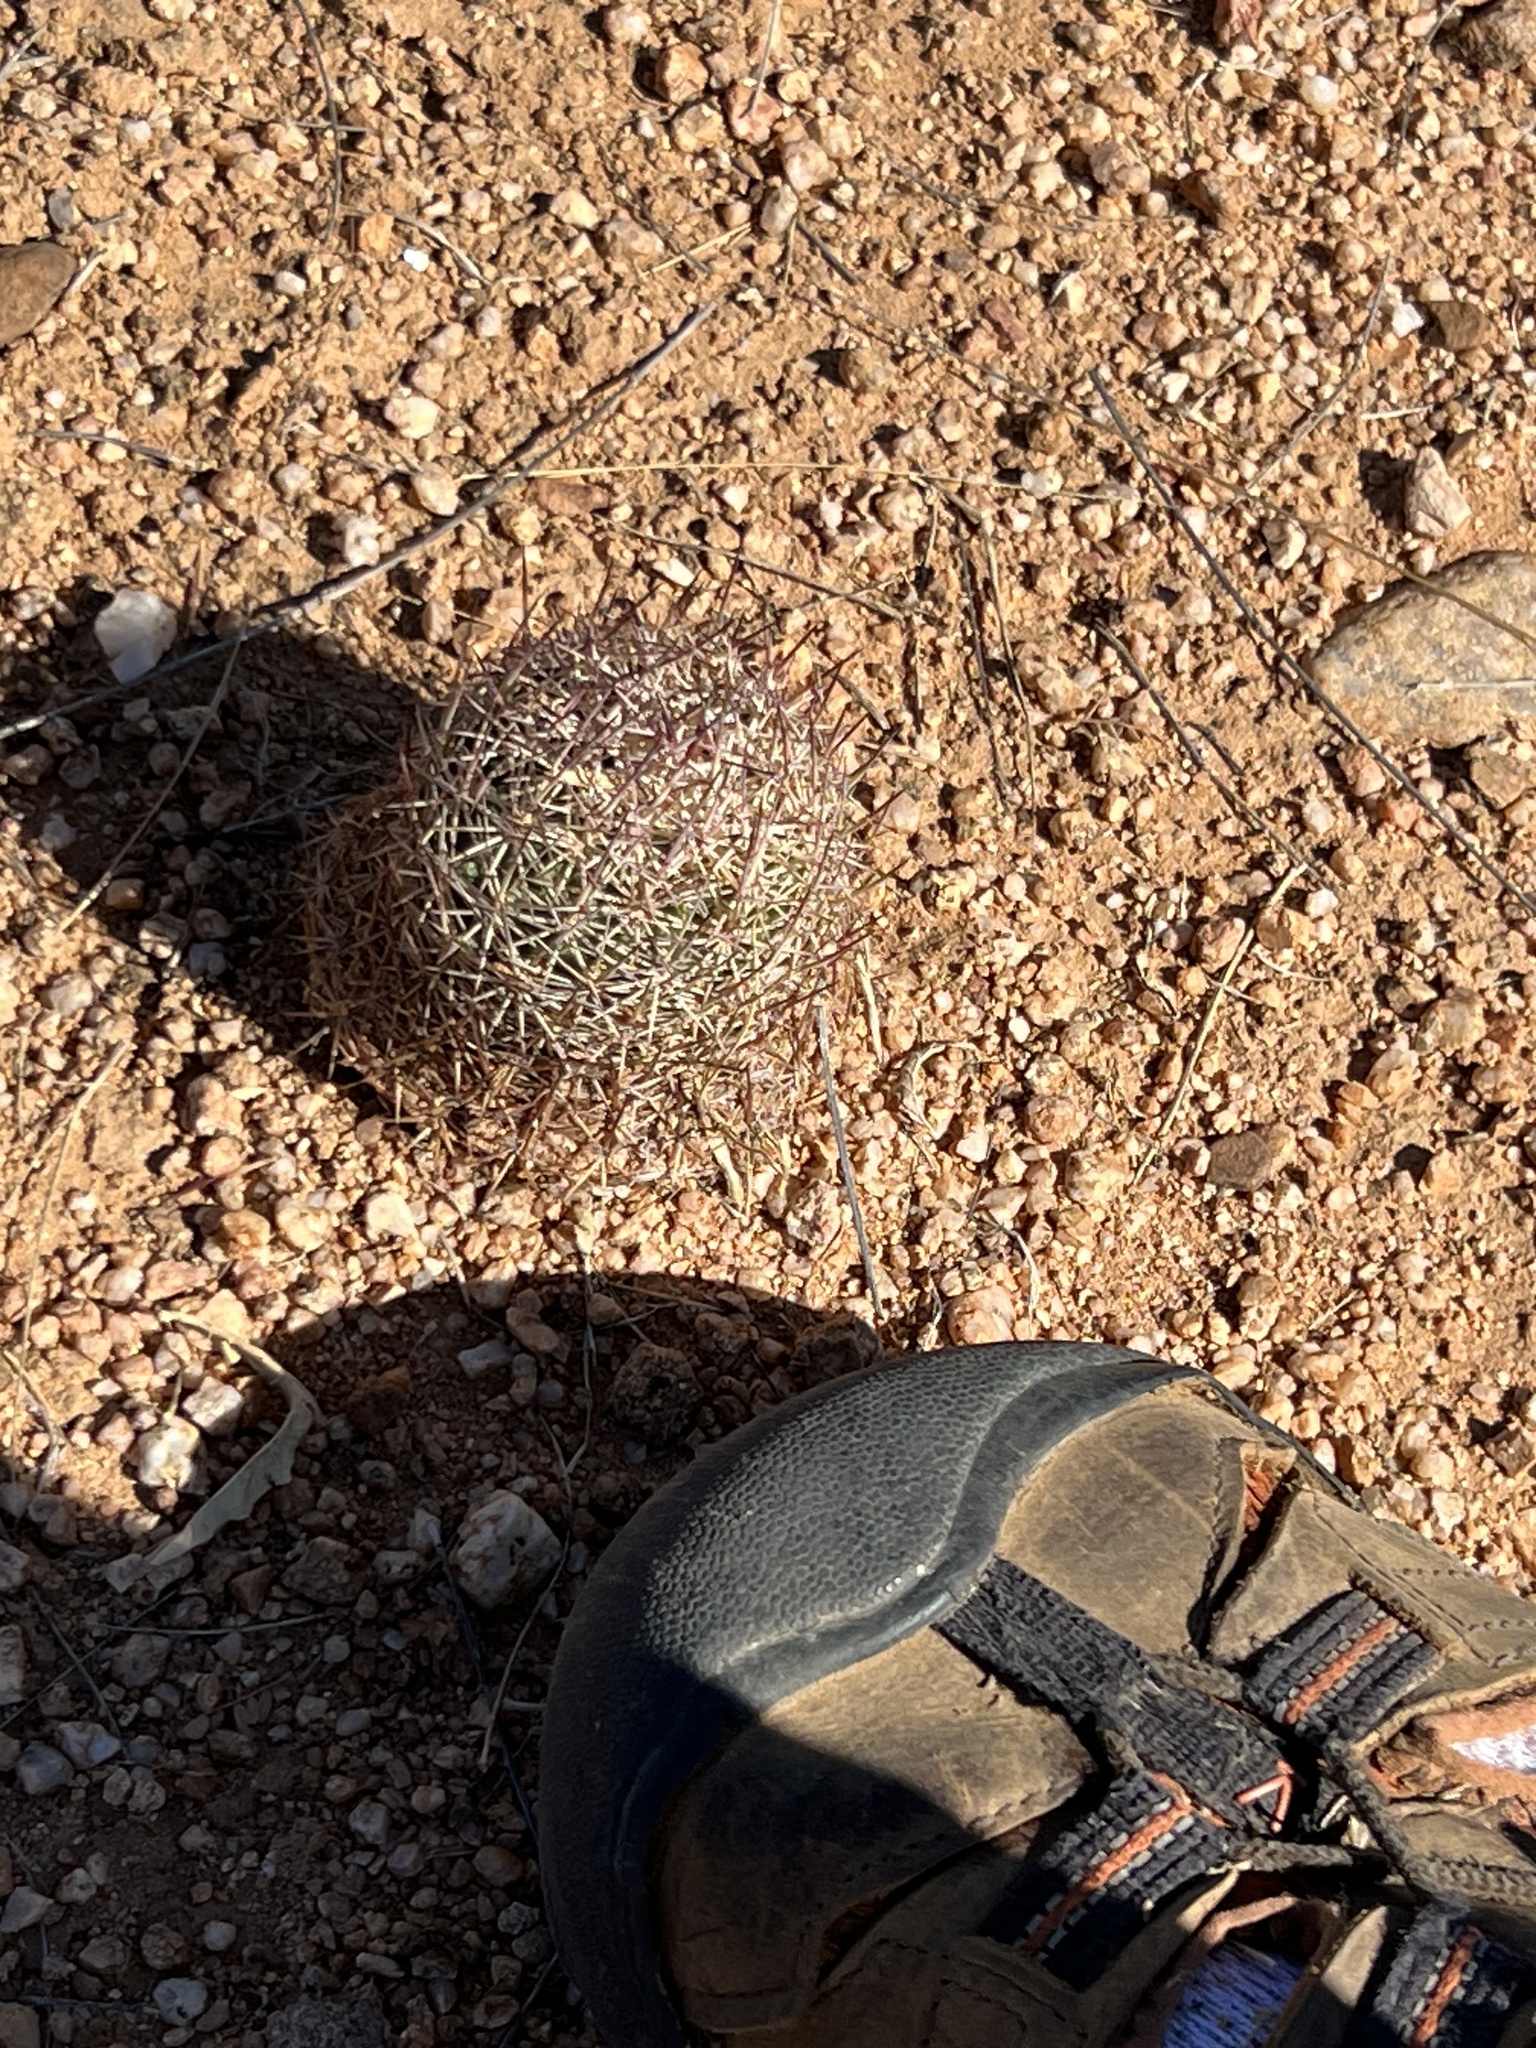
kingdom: Plantae
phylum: Tracheophyta
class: Magnoliopsida
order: Caryophyllales
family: Cactaceae
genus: Sclerocactus
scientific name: Sclerocactus johnsonii
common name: Eight-spine fishhook cactus
